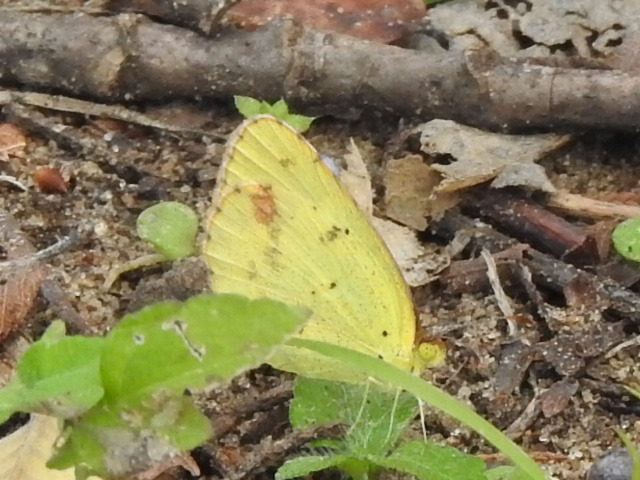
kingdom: Animalia
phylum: Arthropoda
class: Insecta
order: Lepidoptera
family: Pieridae
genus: Pyrisitia
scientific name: Pyrisitia lisa
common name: Little yellow
